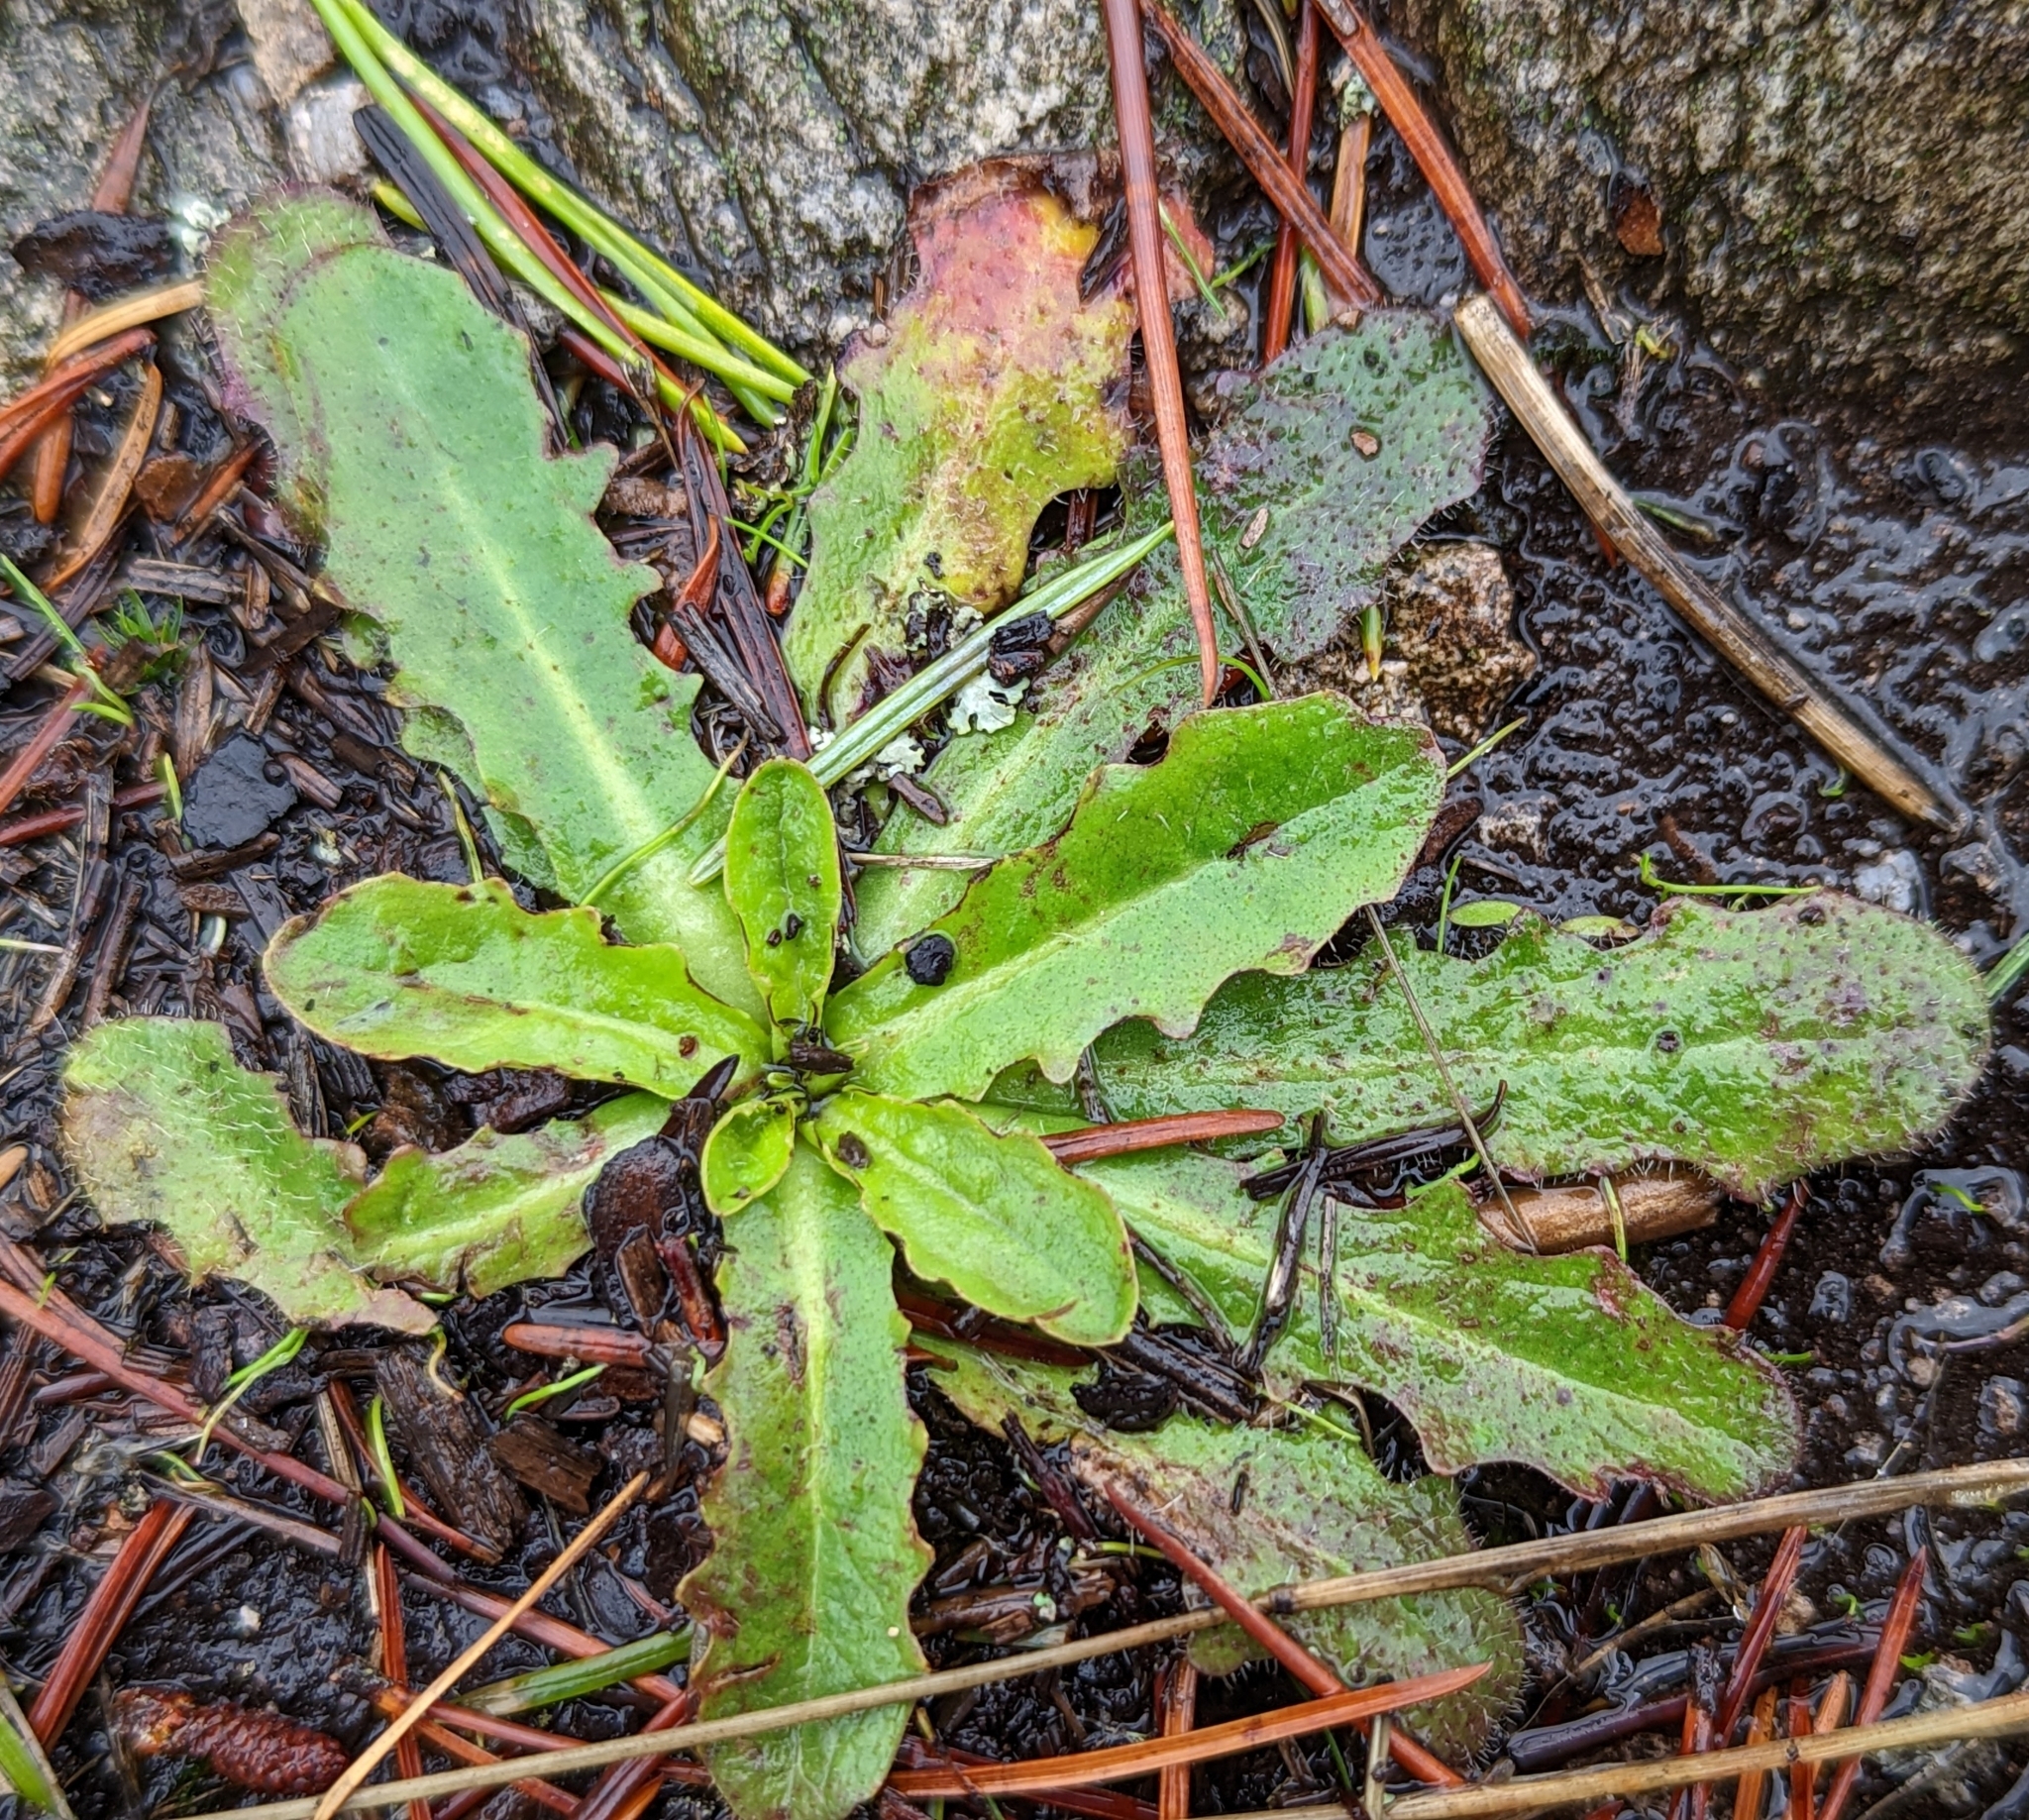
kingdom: Plantae
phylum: Tracheophyta
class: Magnoliopsida
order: Asterales
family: Asteraceae
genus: Hypochaeris
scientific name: Hypochaeris radicata
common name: Flatweed
